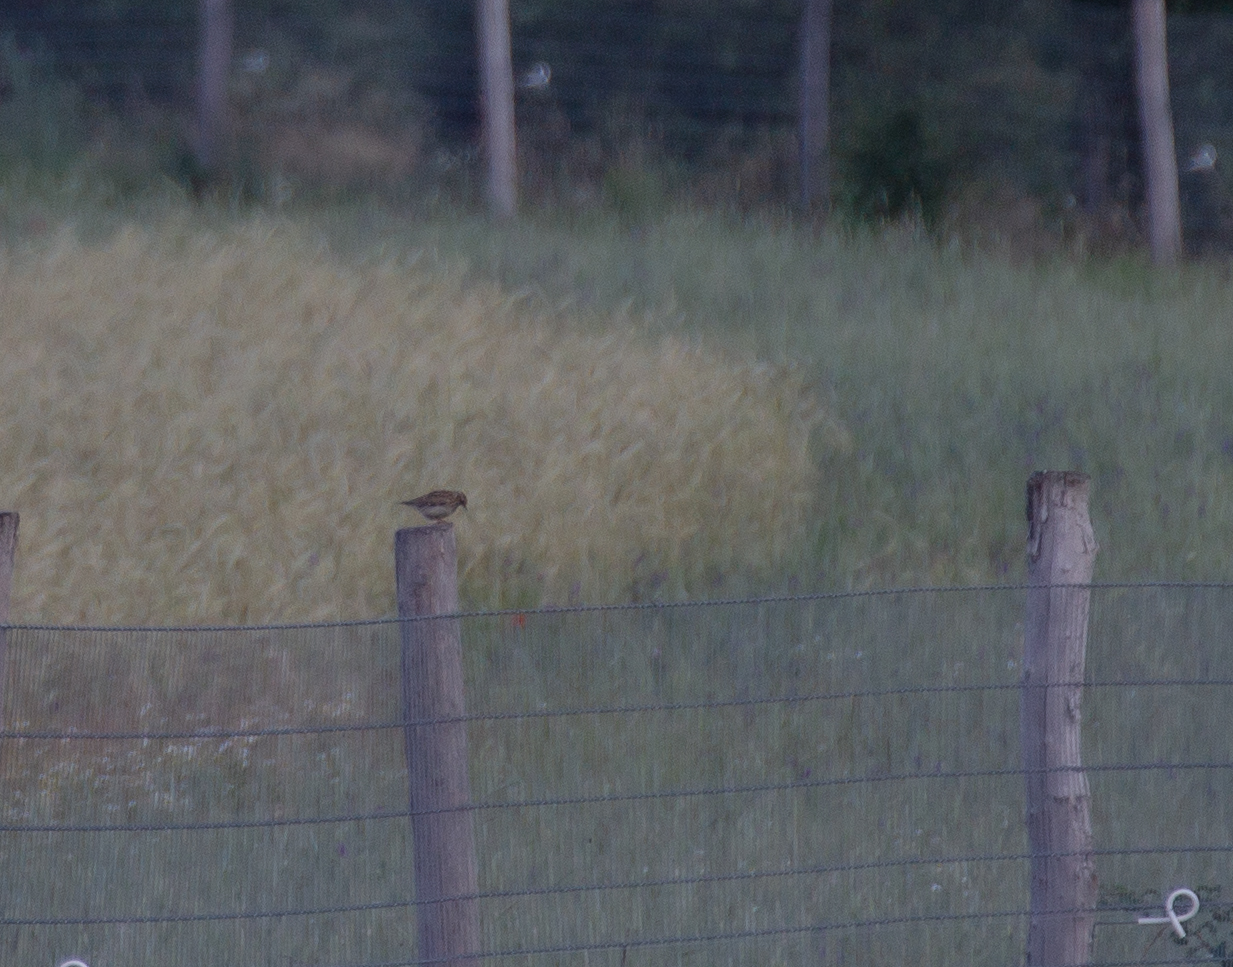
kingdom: Animalia
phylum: Chordata
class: Aves
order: Passeriformes
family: Alaudidae
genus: Lullula
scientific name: Lullula arborea
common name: Woodlark
